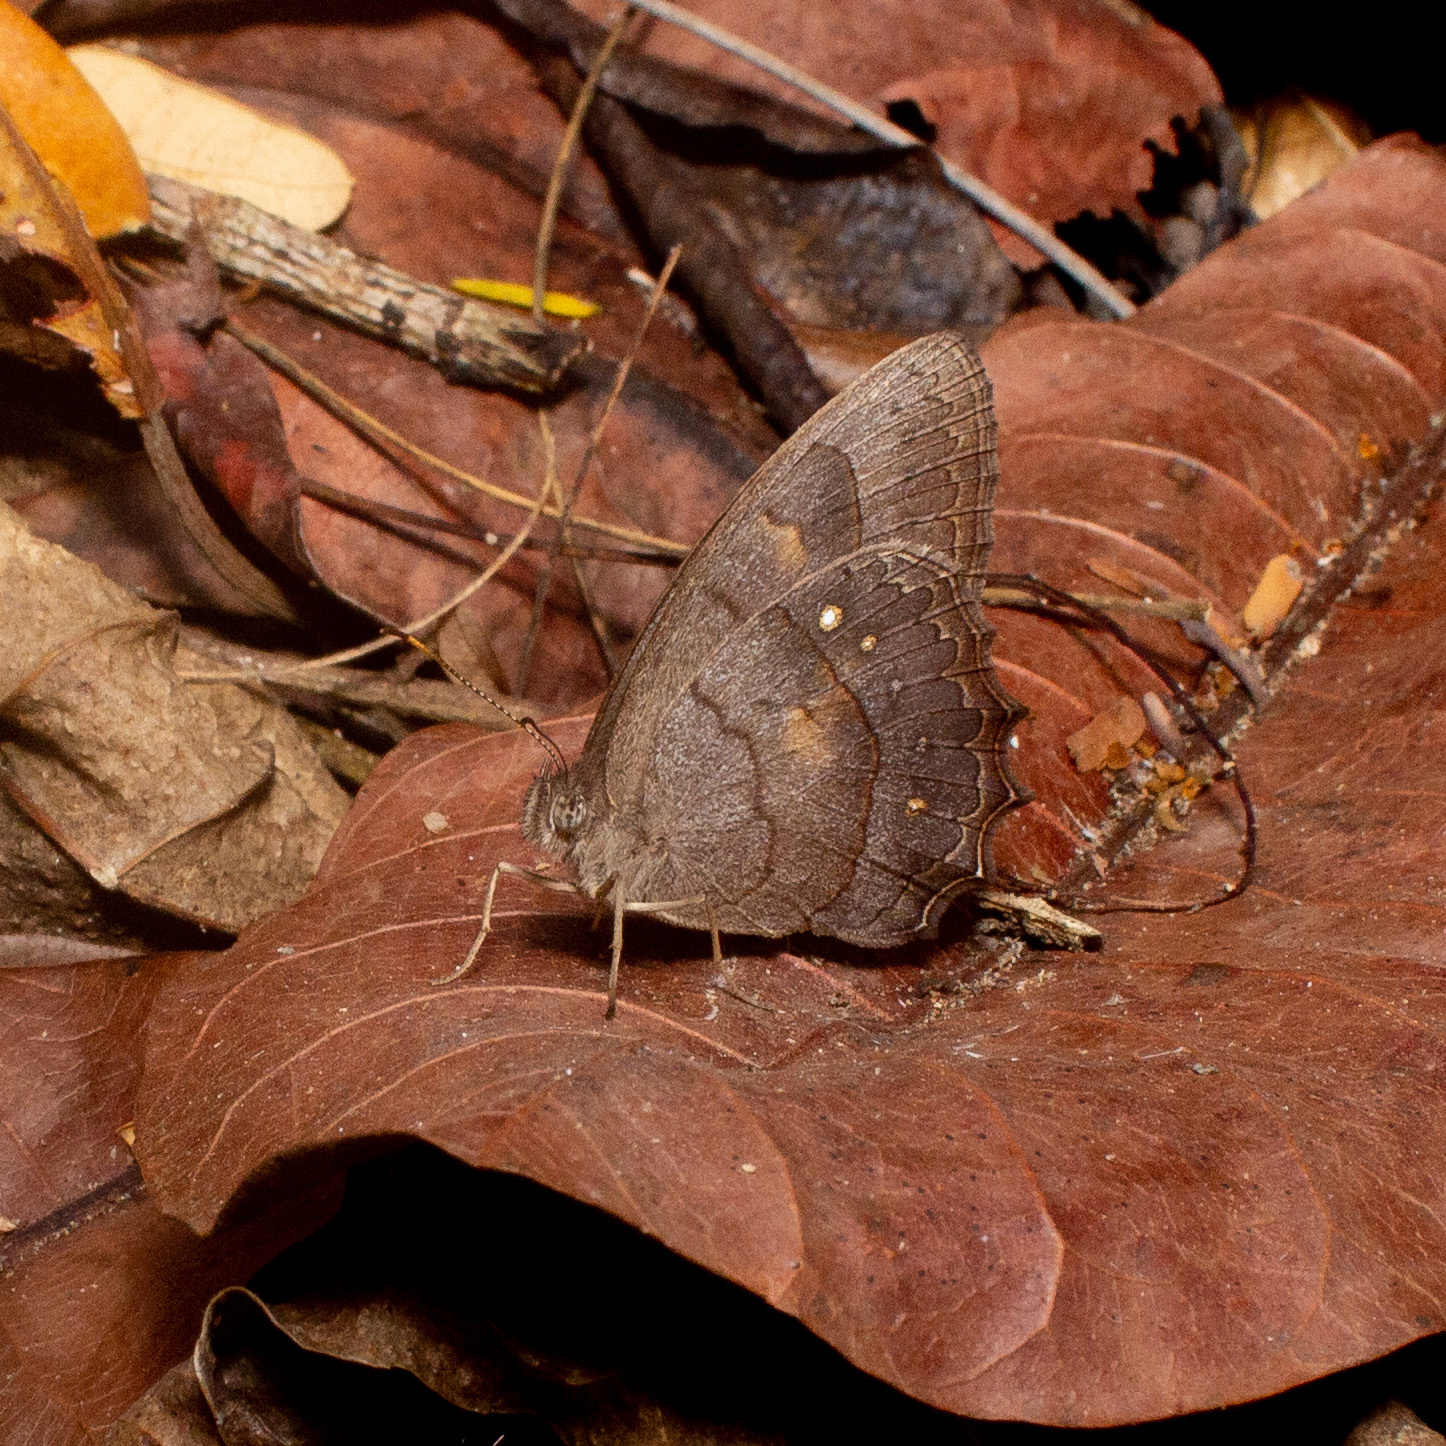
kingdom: Animalia
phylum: Arthropoda
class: Insecta
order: Lepidoptera
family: Nymphalidae
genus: Taygetina
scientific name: Taygetina kerea
